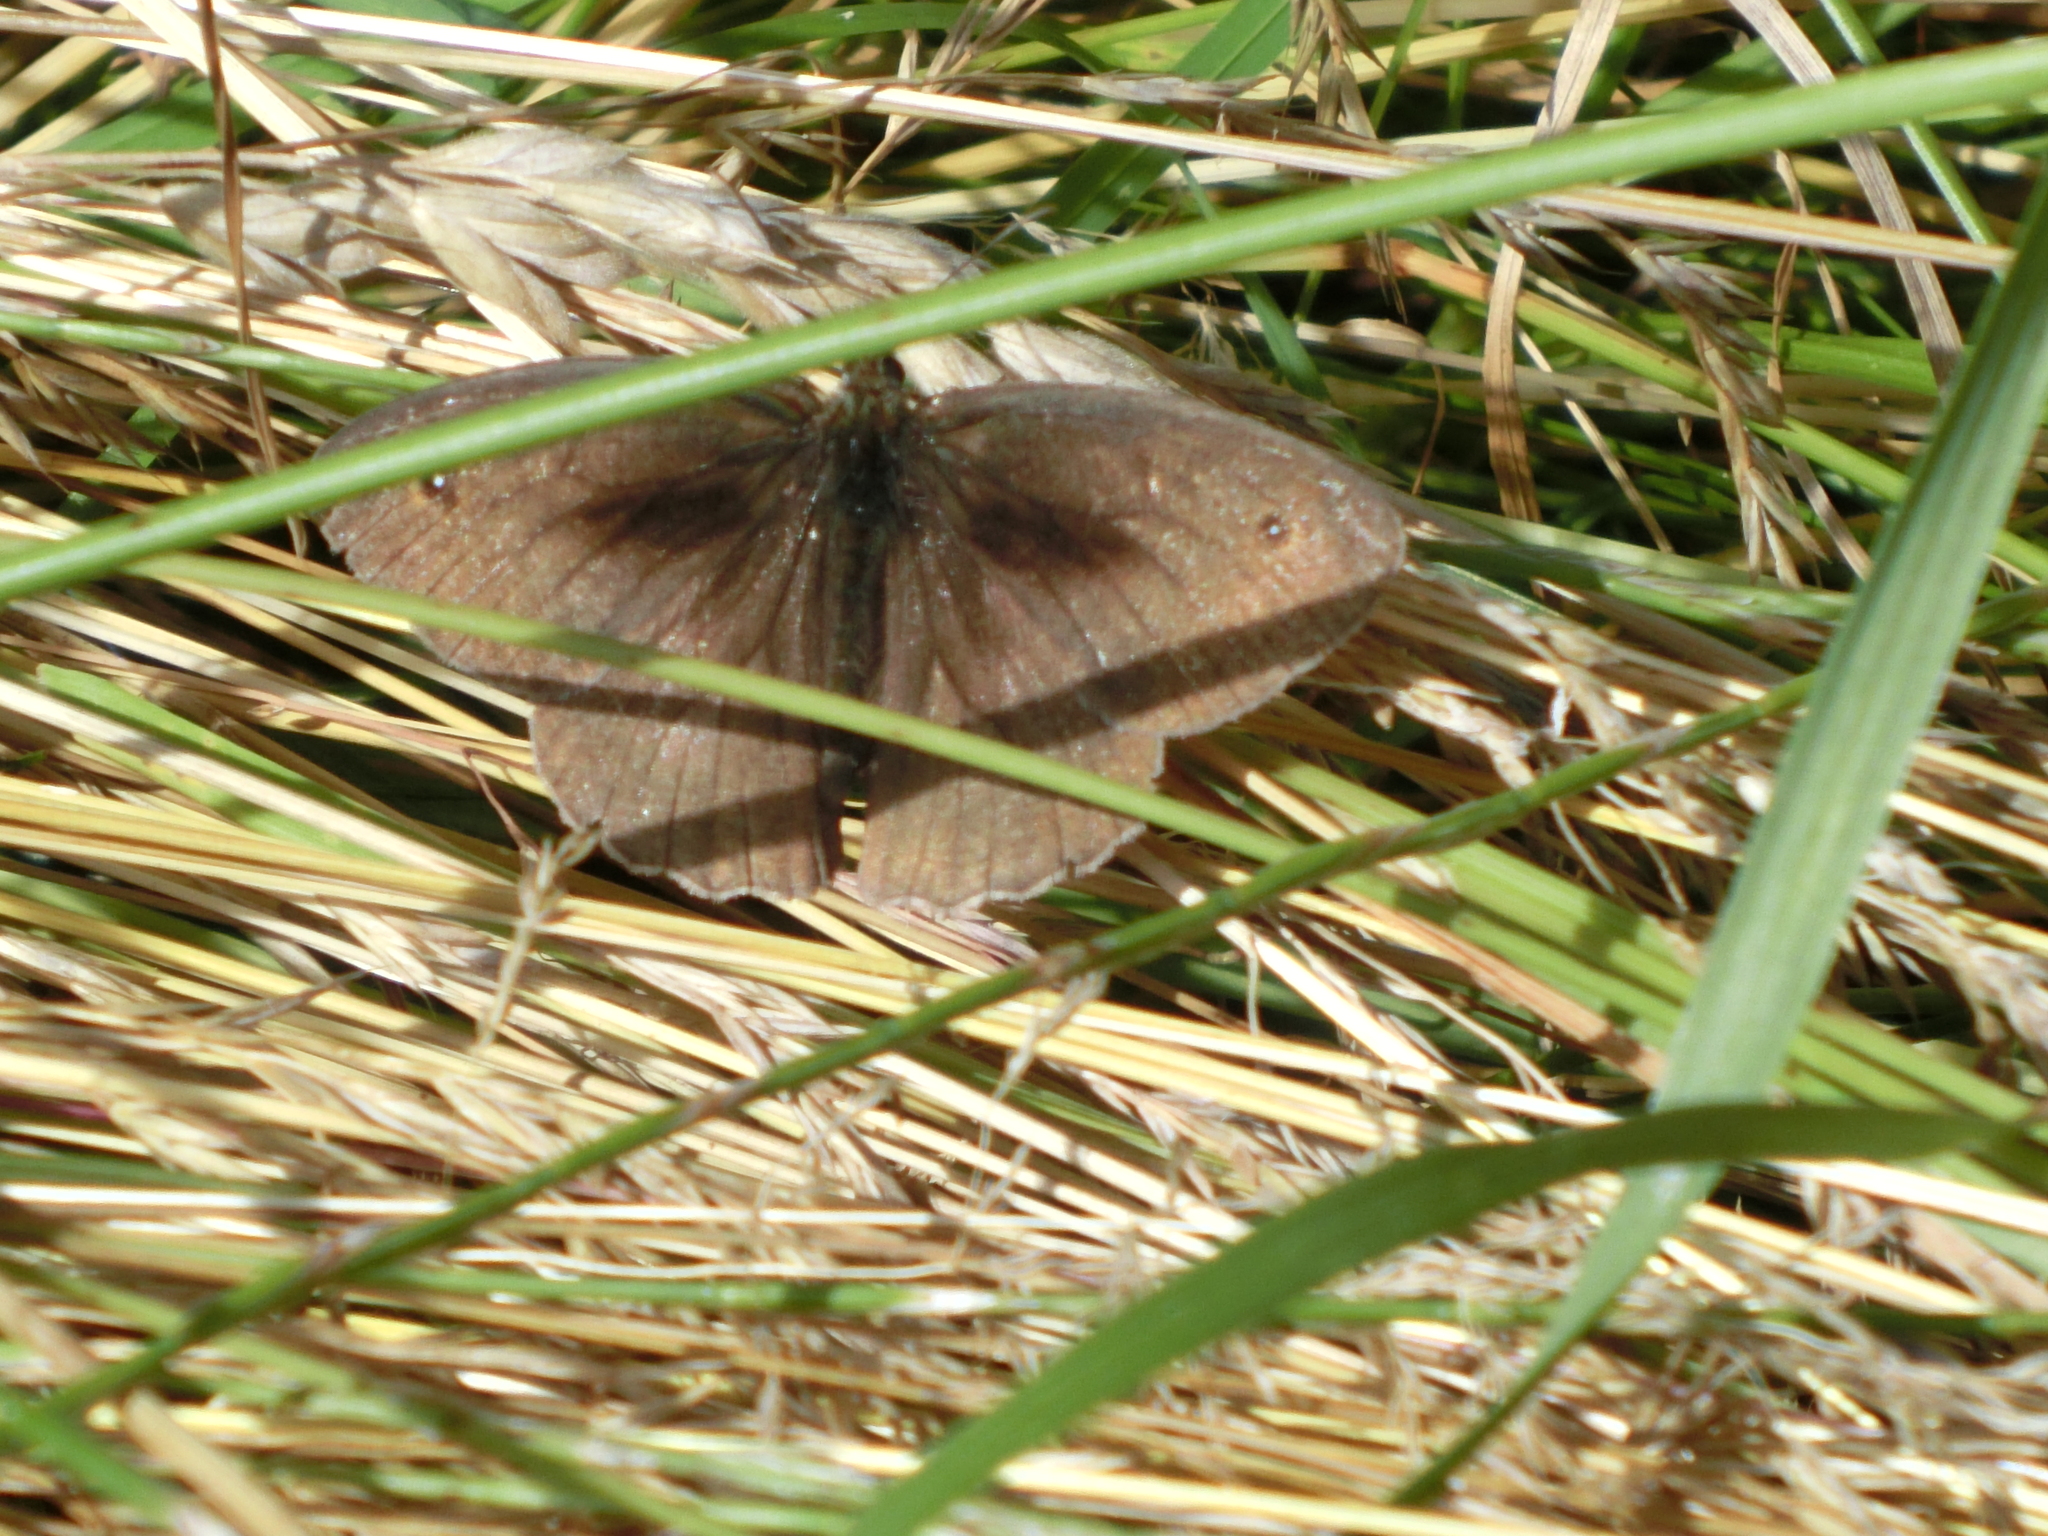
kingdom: Animalia
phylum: Arthropoda
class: Insecta
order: Lepidoptera
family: Nymphalidae
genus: Maniola
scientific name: Maniola jurtina
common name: Meadow brown
